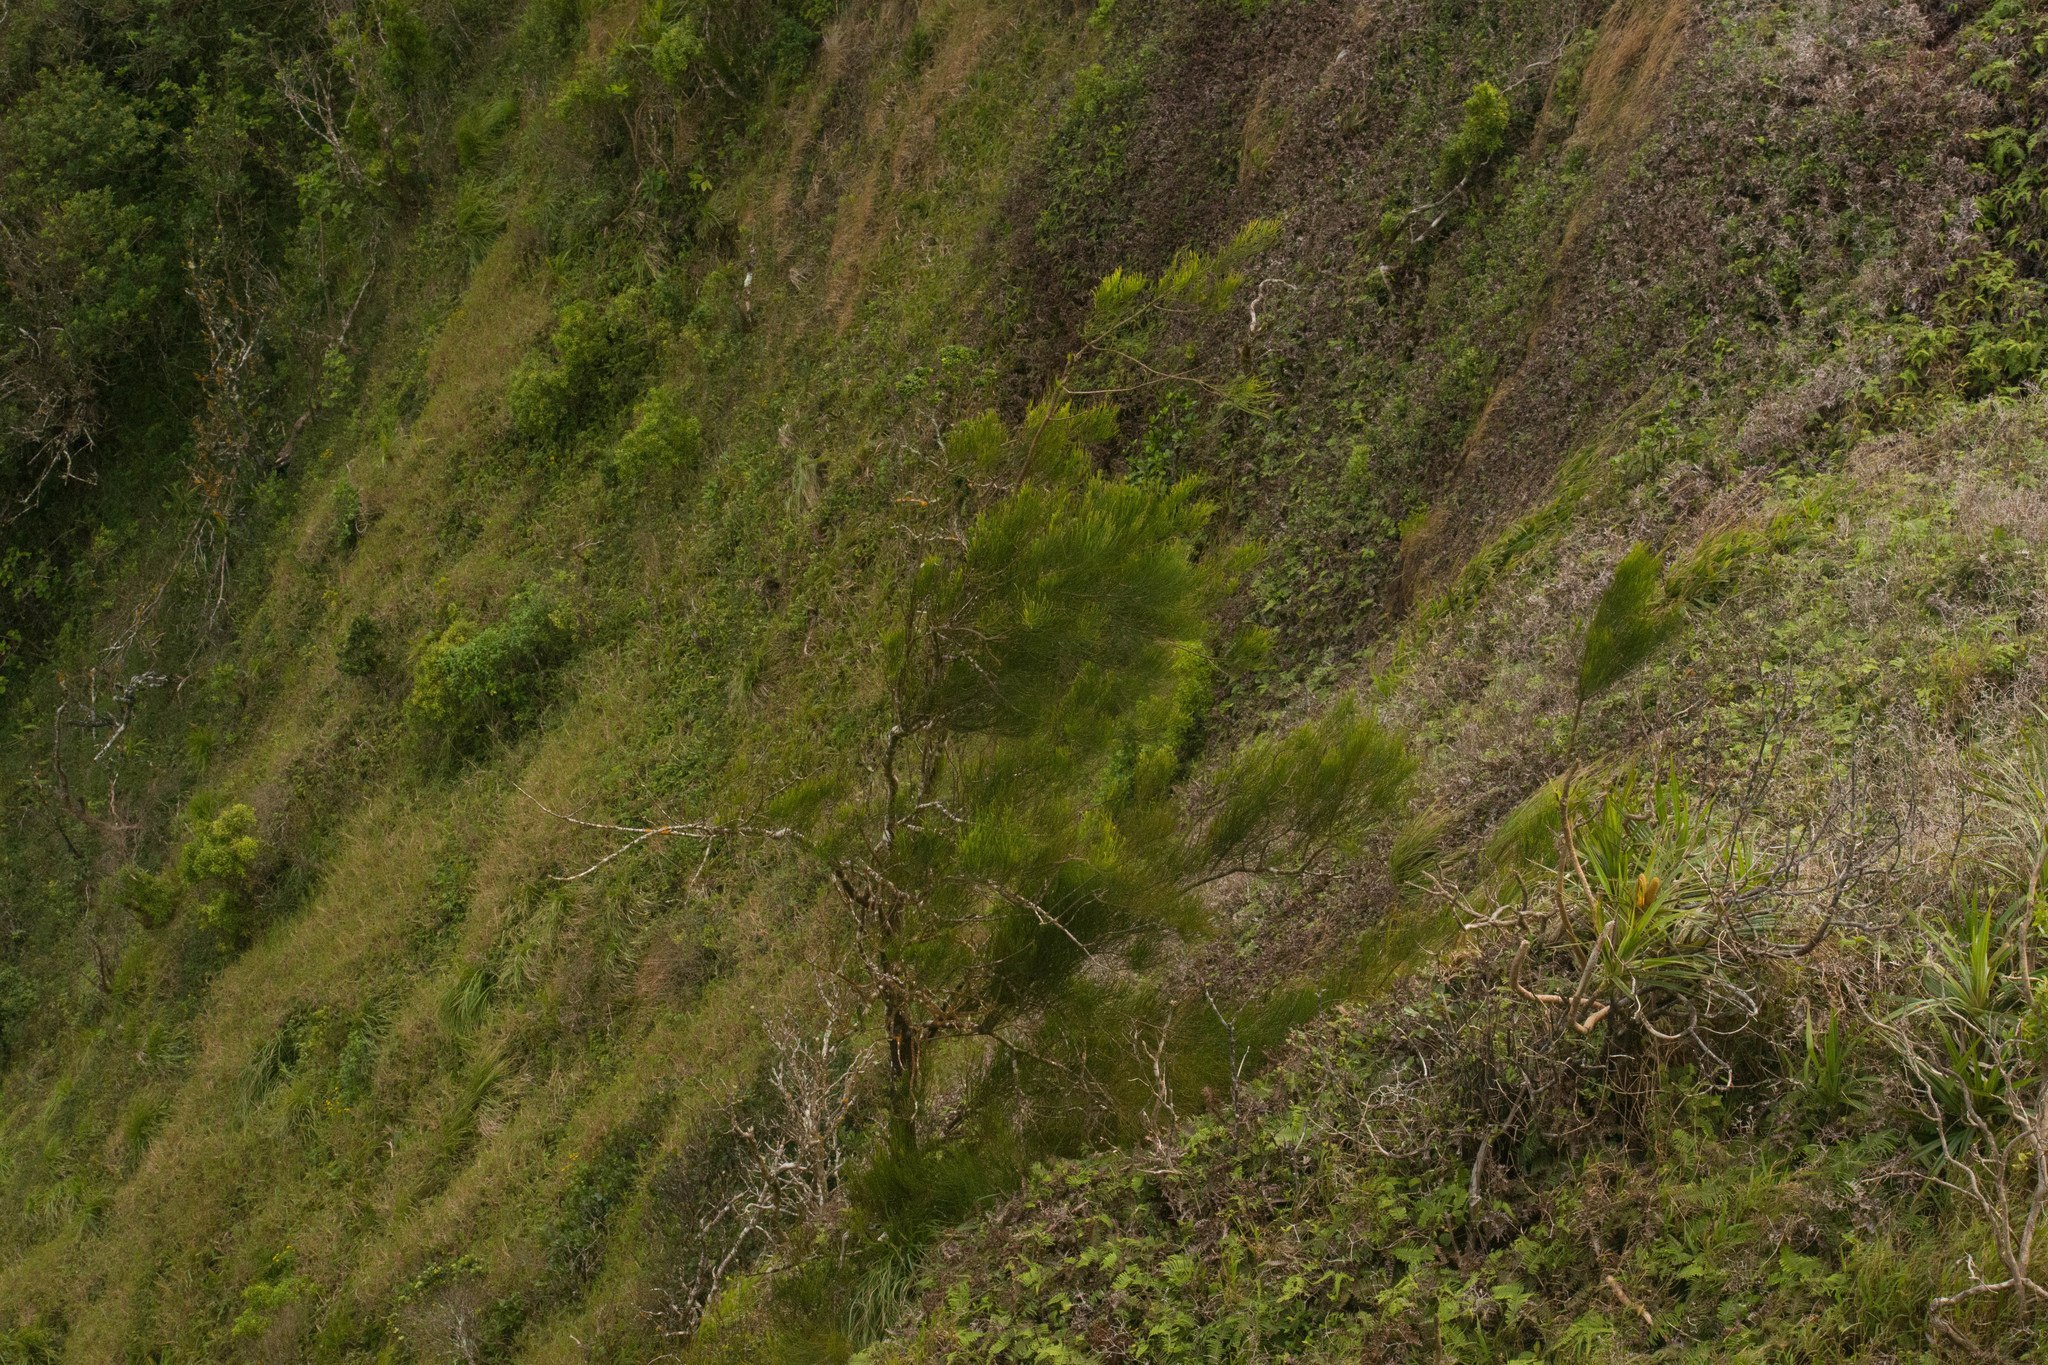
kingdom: Plantae
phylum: Tracheophyta
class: Magnoliopsida
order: Fagales
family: Casuarinaceae
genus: Casuarina
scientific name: Casuarina equisetifolia
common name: Beach sheoak
